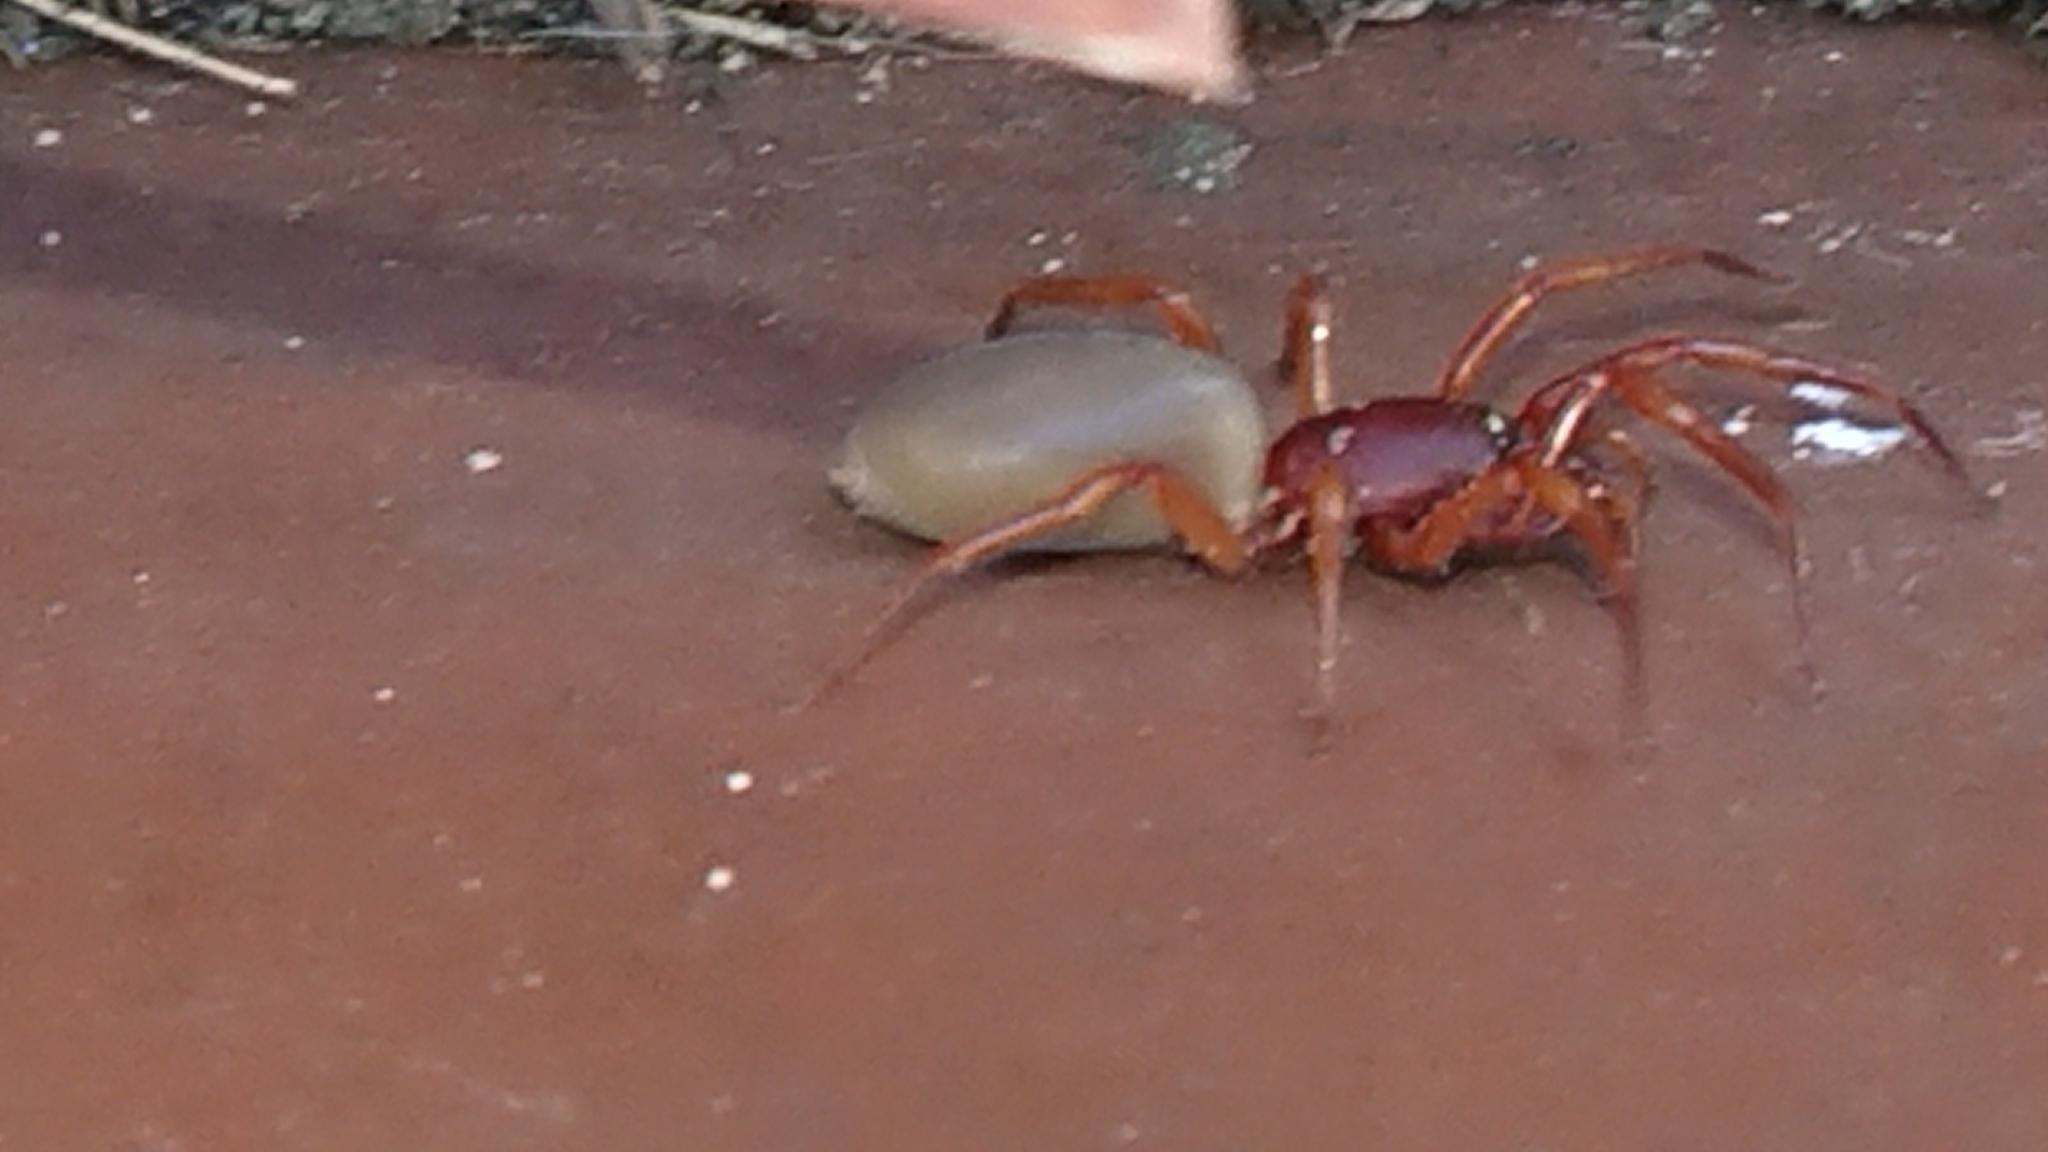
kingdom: Animalia
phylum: Arthropoda
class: Arachnida
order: Araneae
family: Dysderidae
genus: Dysdera
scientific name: Dysdera crocata
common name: Woodlouse spider
